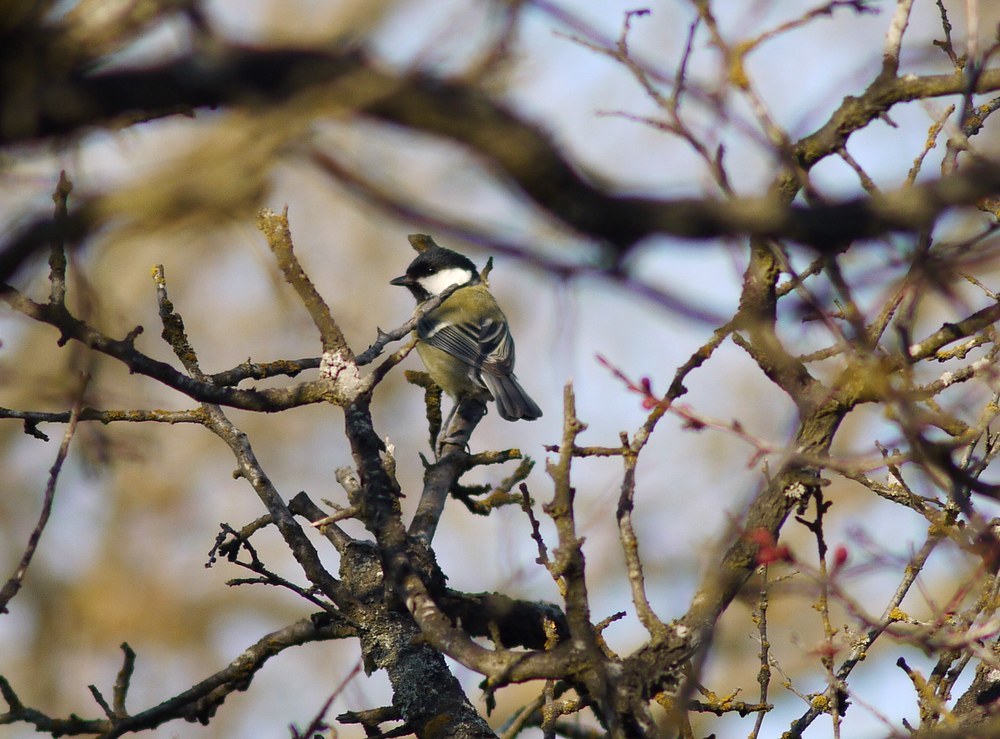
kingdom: Animalia
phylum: Chordata
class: Aves
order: Passeriformes
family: Paridae
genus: Parus
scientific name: Parus major
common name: Great tit
